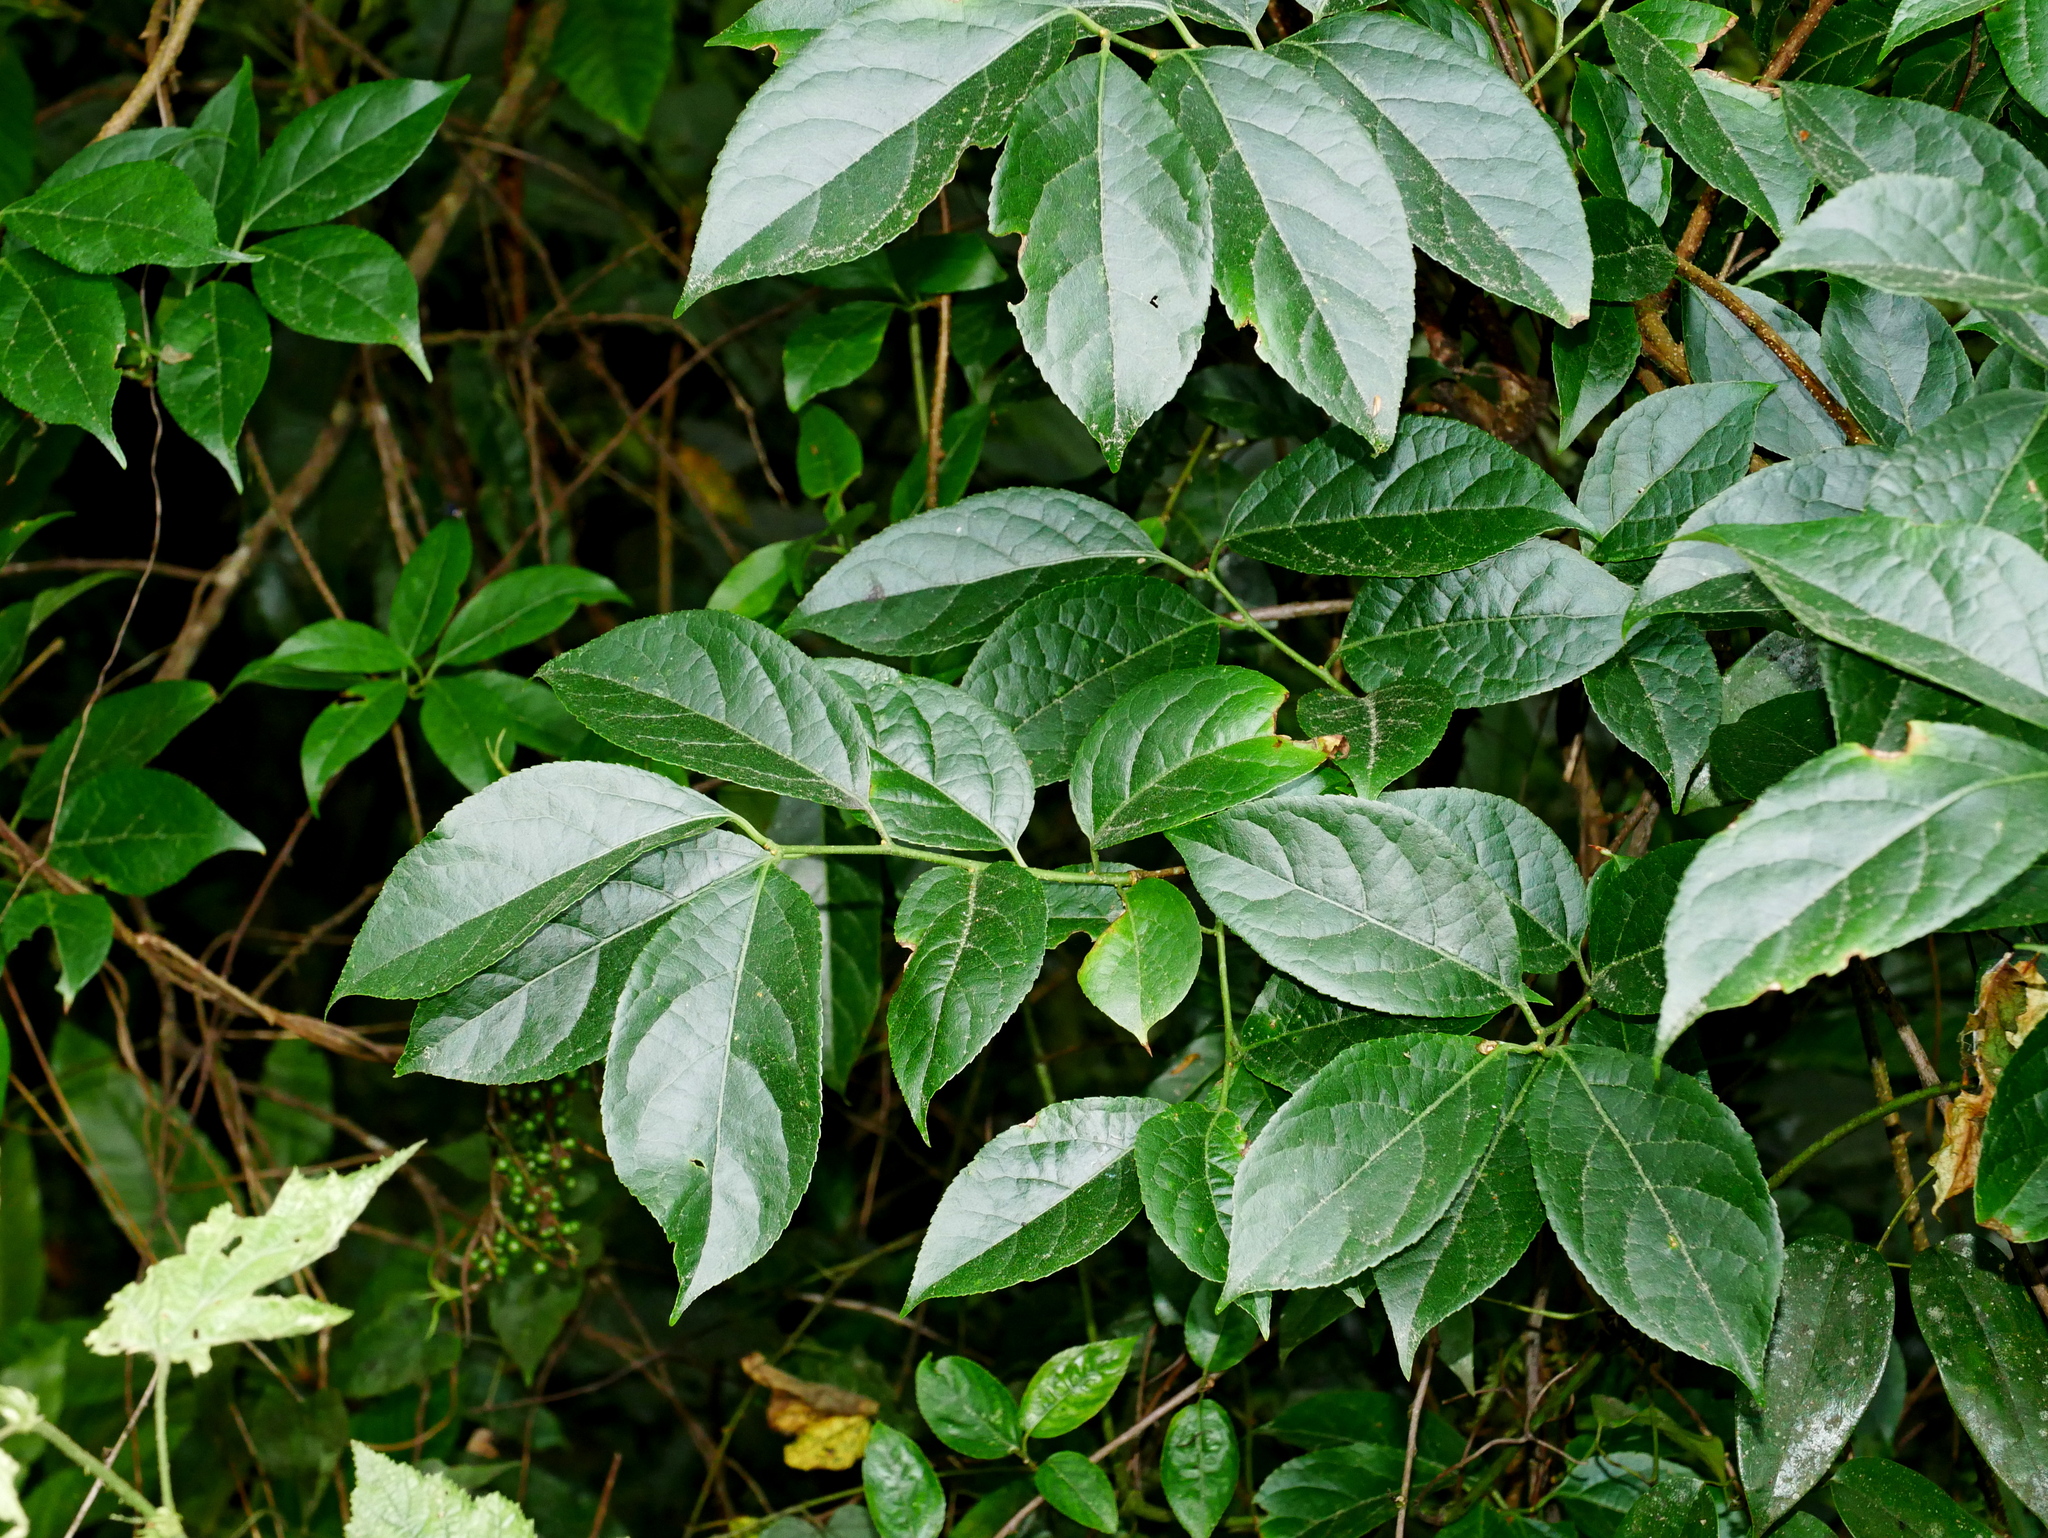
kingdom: Plantae
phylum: Tracheophyta
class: Magnoliopsida
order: Celastrales
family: Celastraceae
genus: Celastrus
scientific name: Celastrus punctatus
